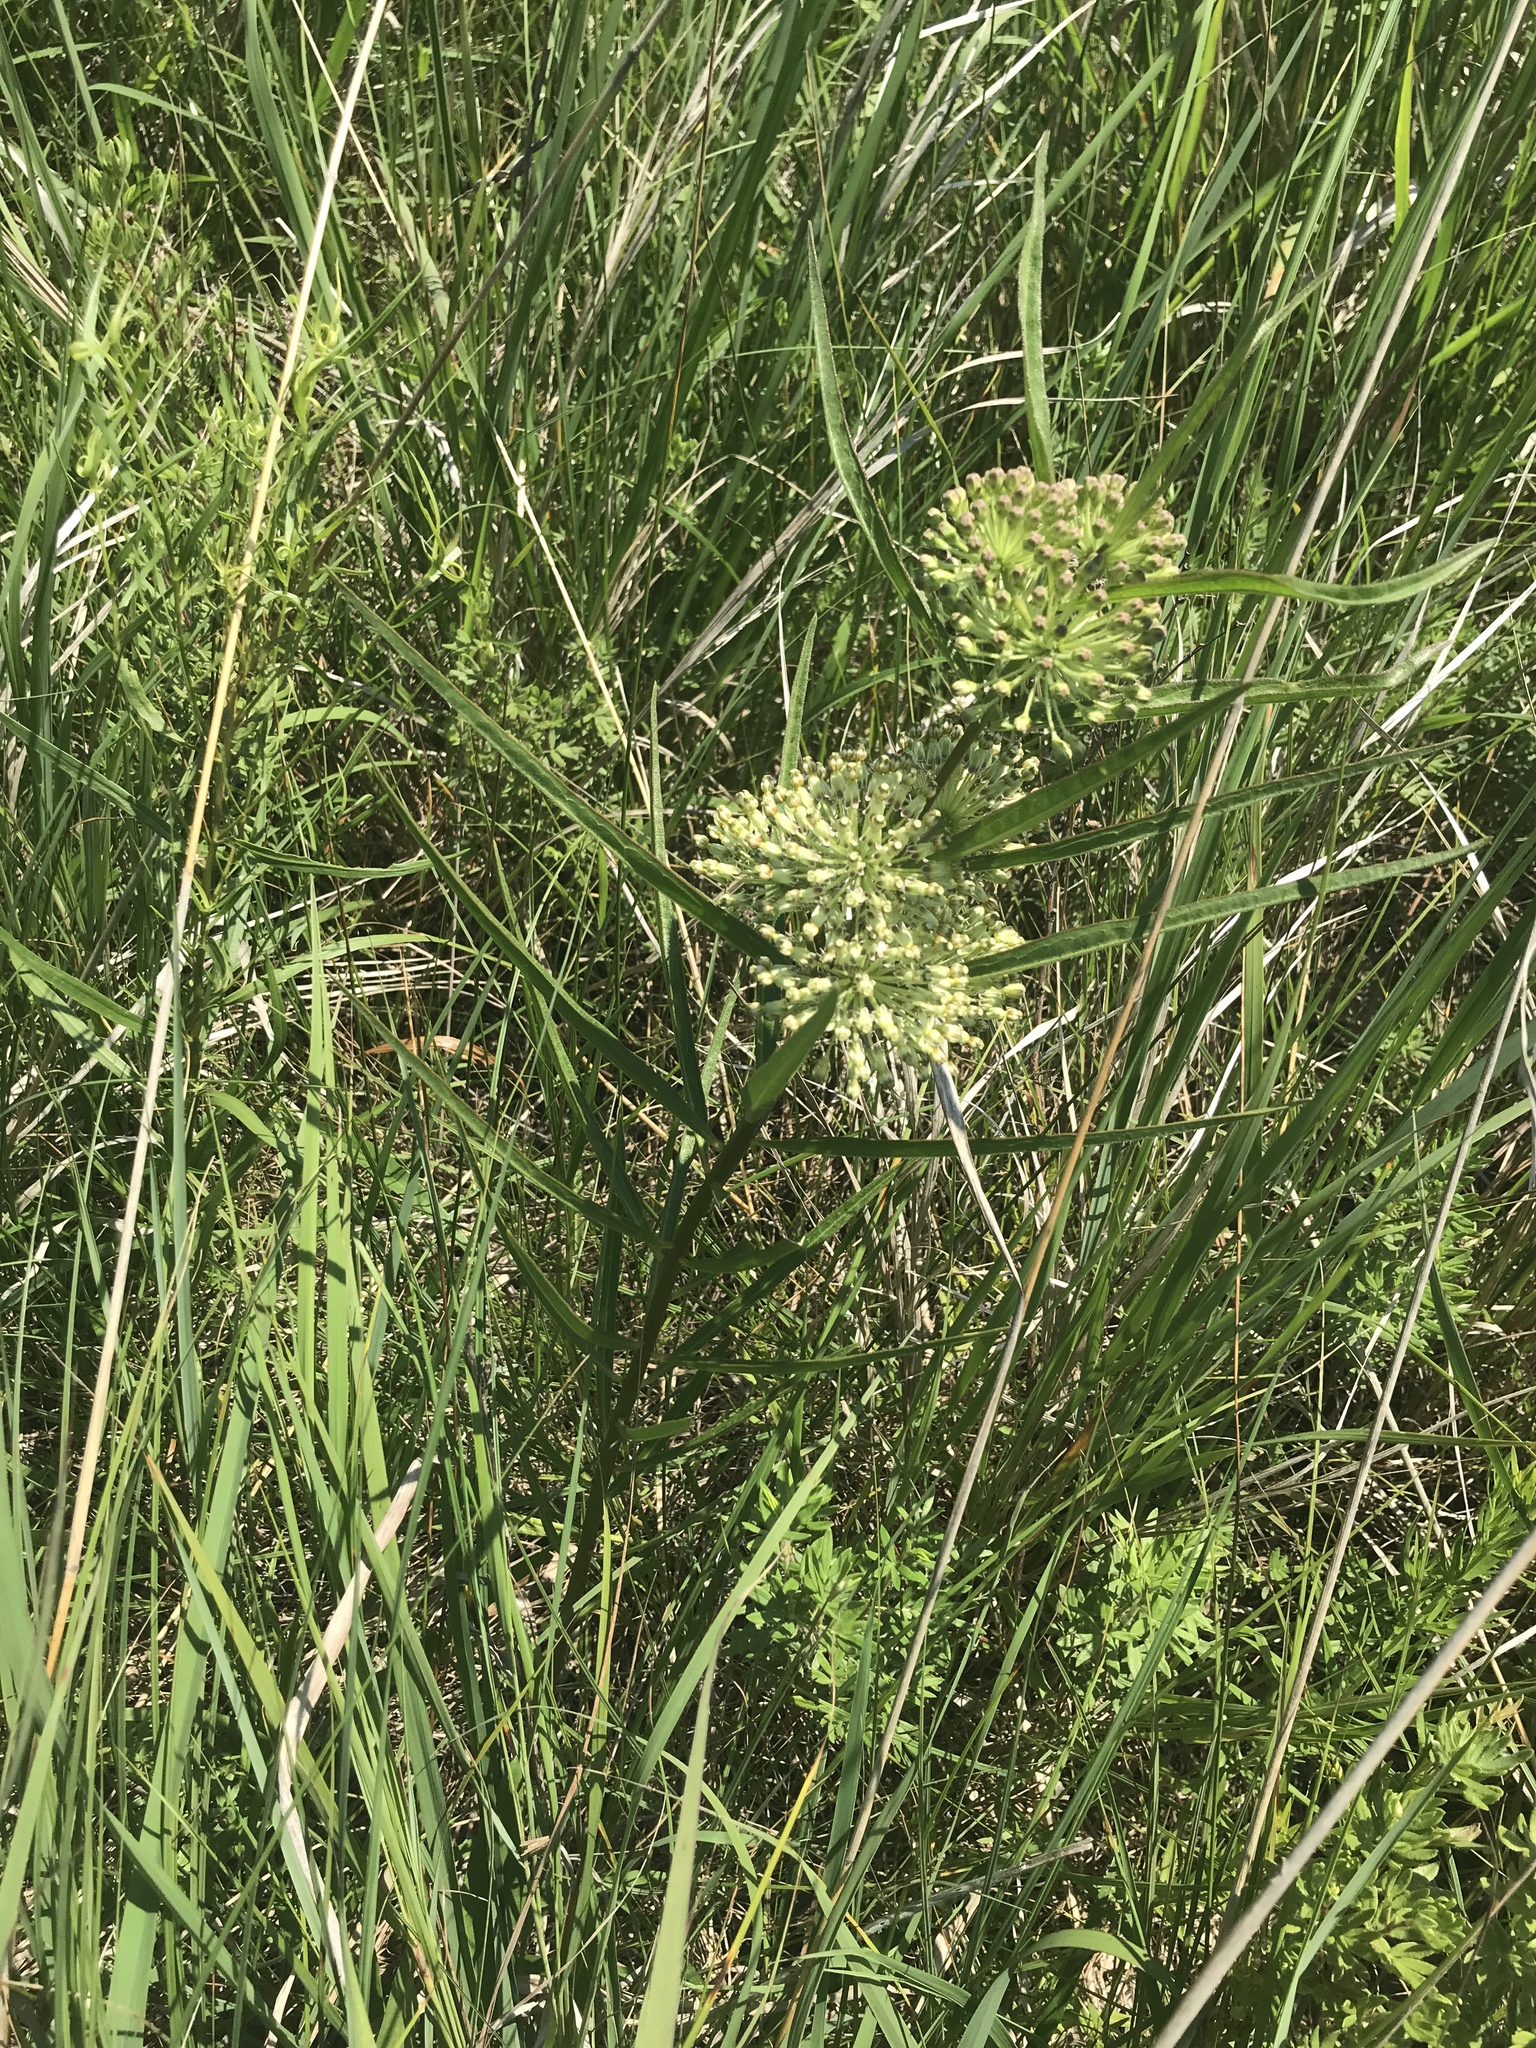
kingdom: Plantae
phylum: Tracheophyta
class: Magnoliopsida
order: Gentianales
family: Apocynaceae
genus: Asclepias
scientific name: Asclepias hirtella
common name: Prairie milkweed
